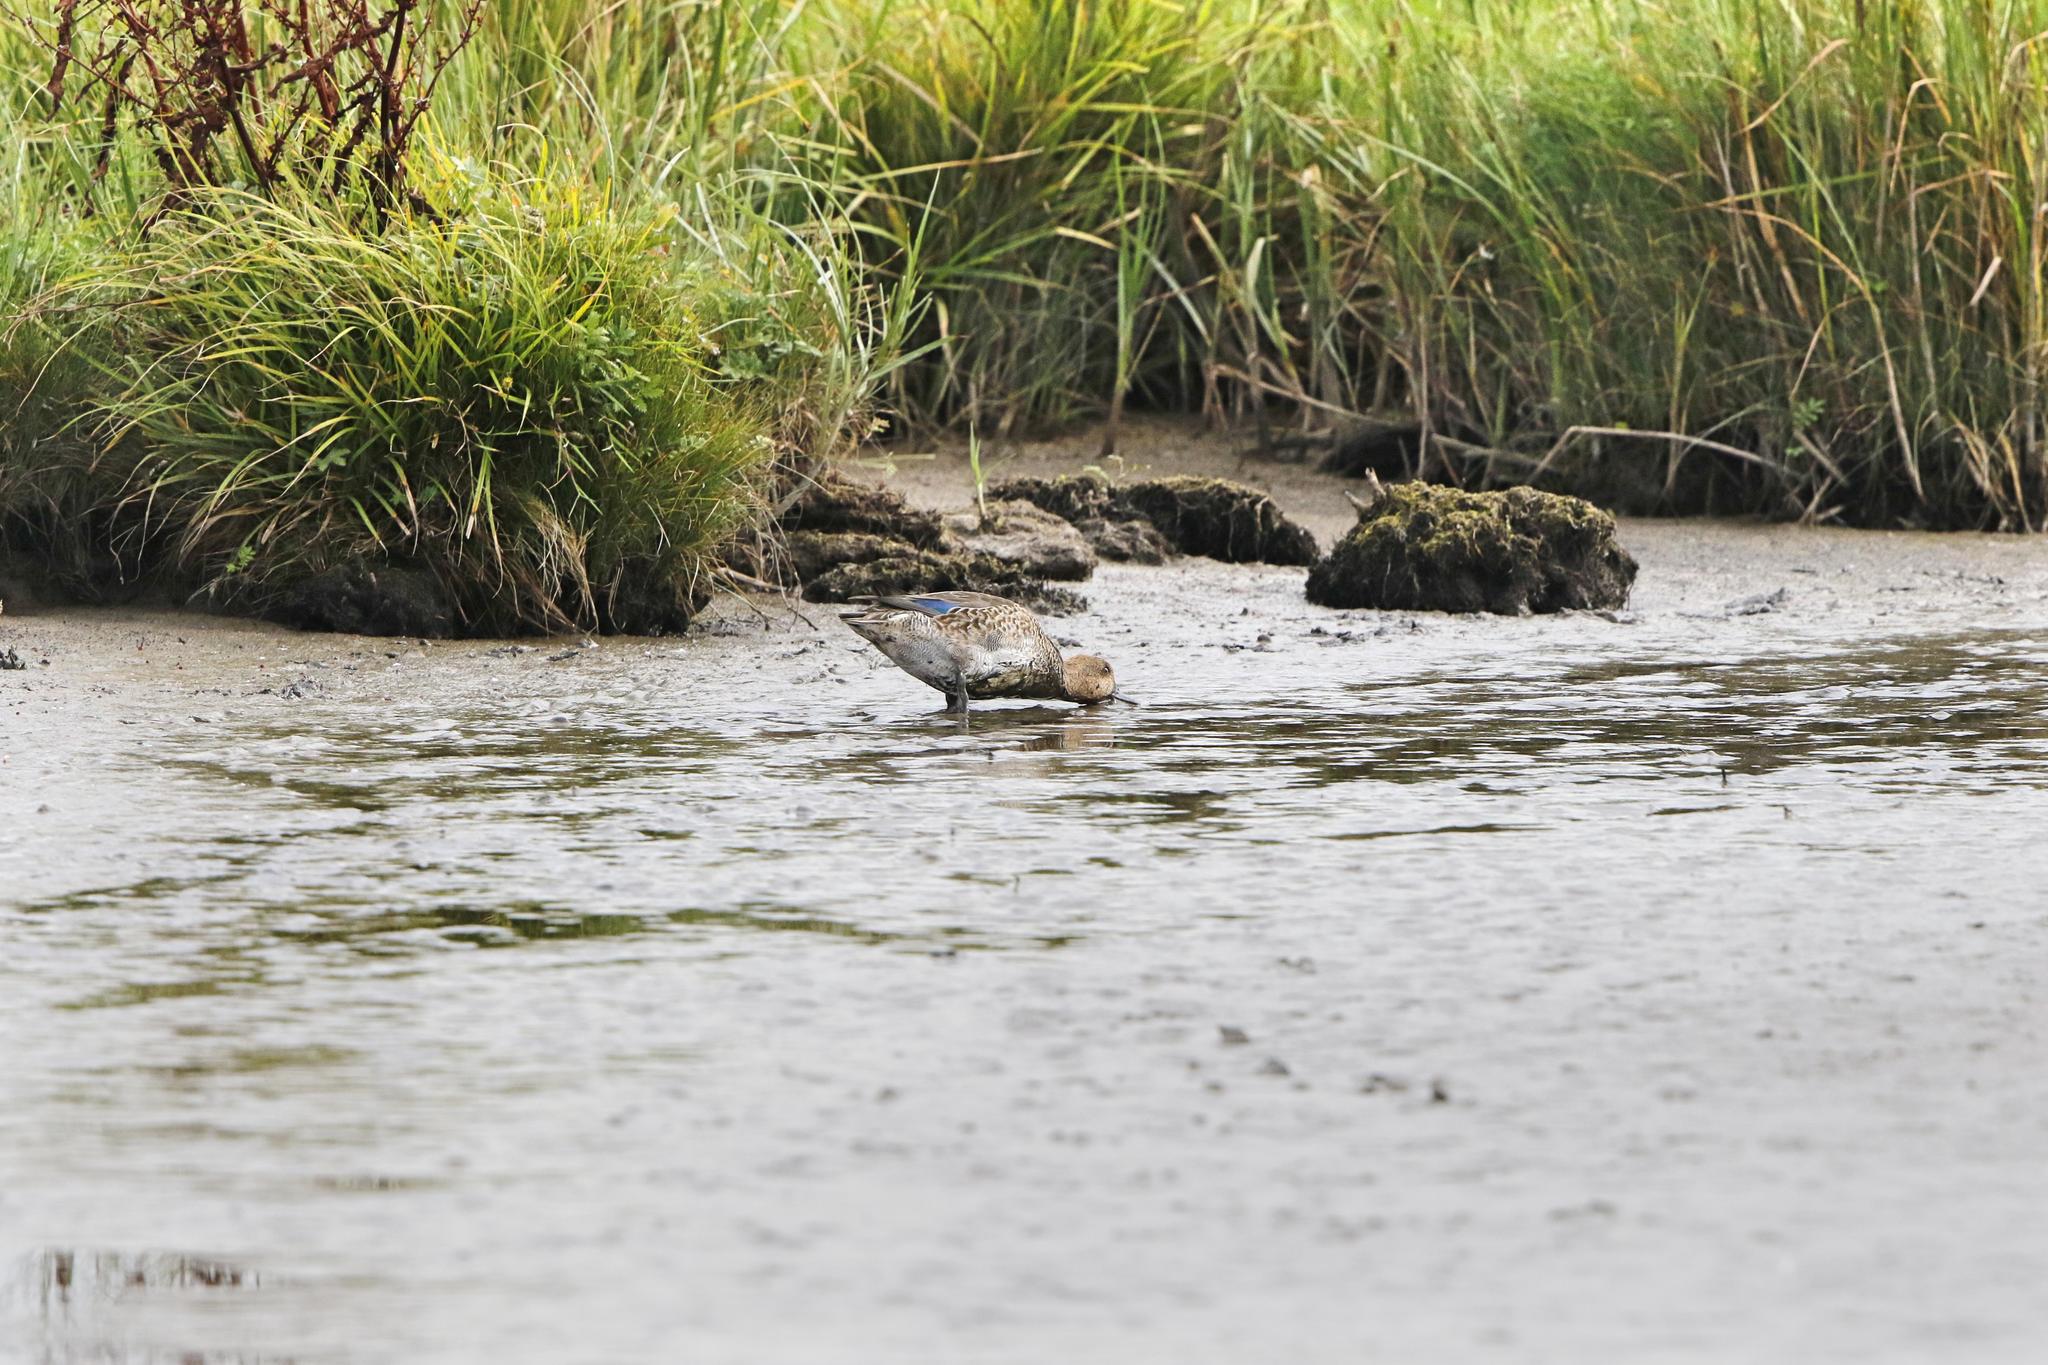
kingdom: Animalia
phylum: Chordata
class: Aves
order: Anseriformes
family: Anatidae
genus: Anas
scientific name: Anas crecca
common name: Eurasian teal
